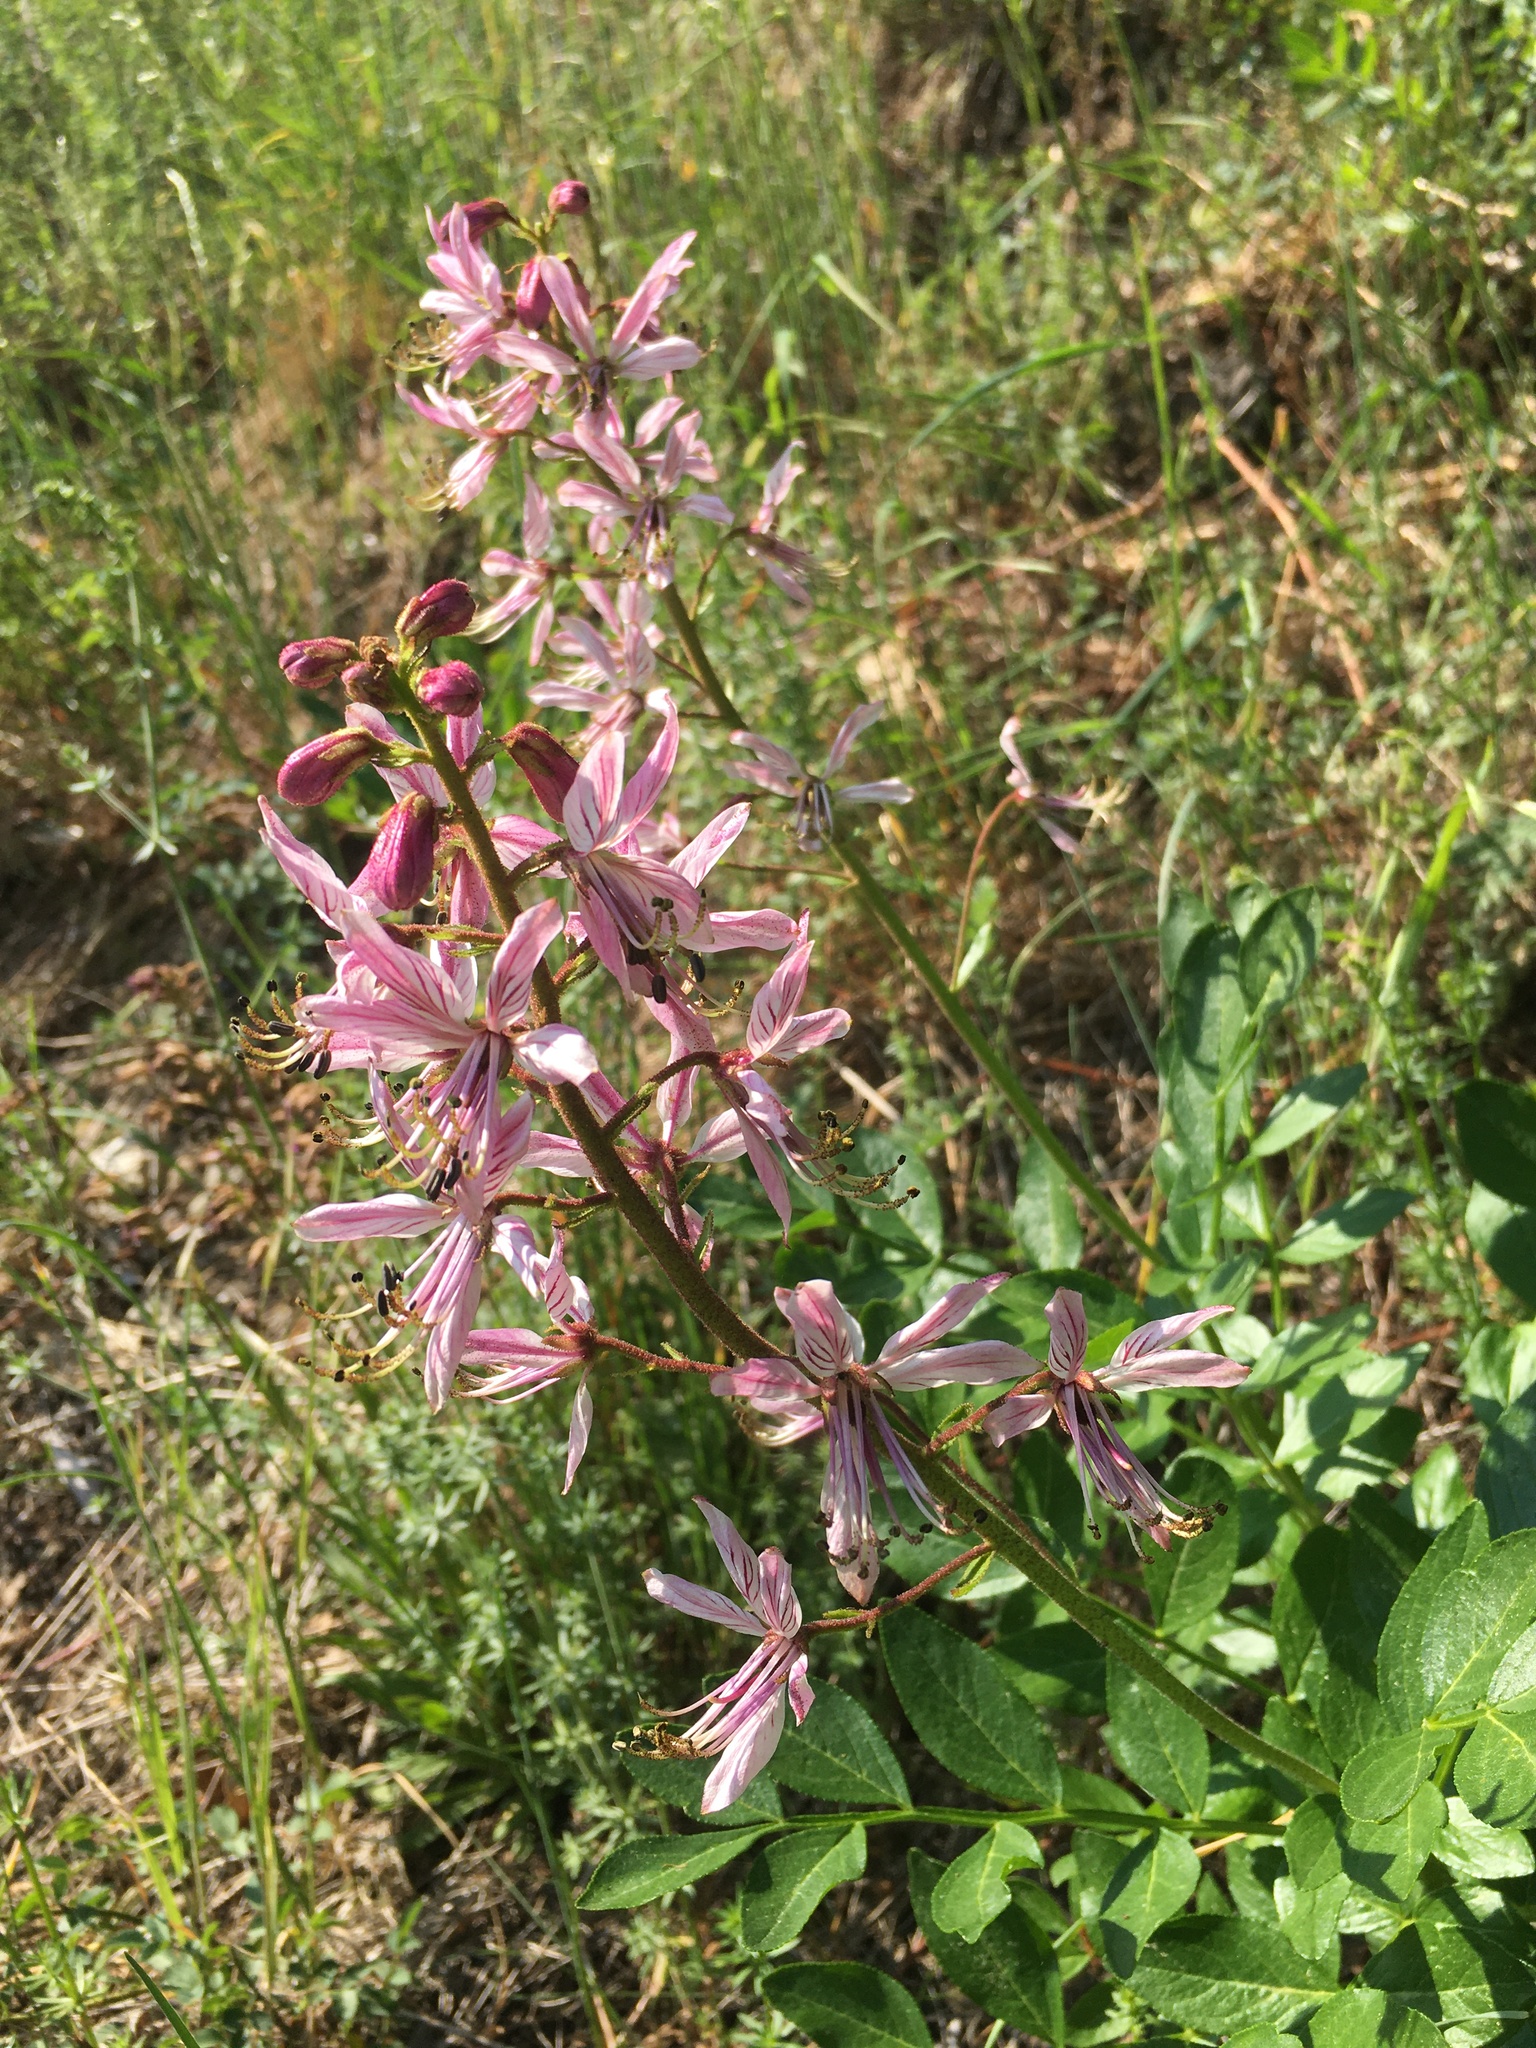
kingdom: Plantae
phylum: Tracheophyta
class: Magnoliopsida
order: Sapindales
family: Rutaceae
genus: Dictamnus
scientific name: Dictamnus albus
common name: Gasplant
